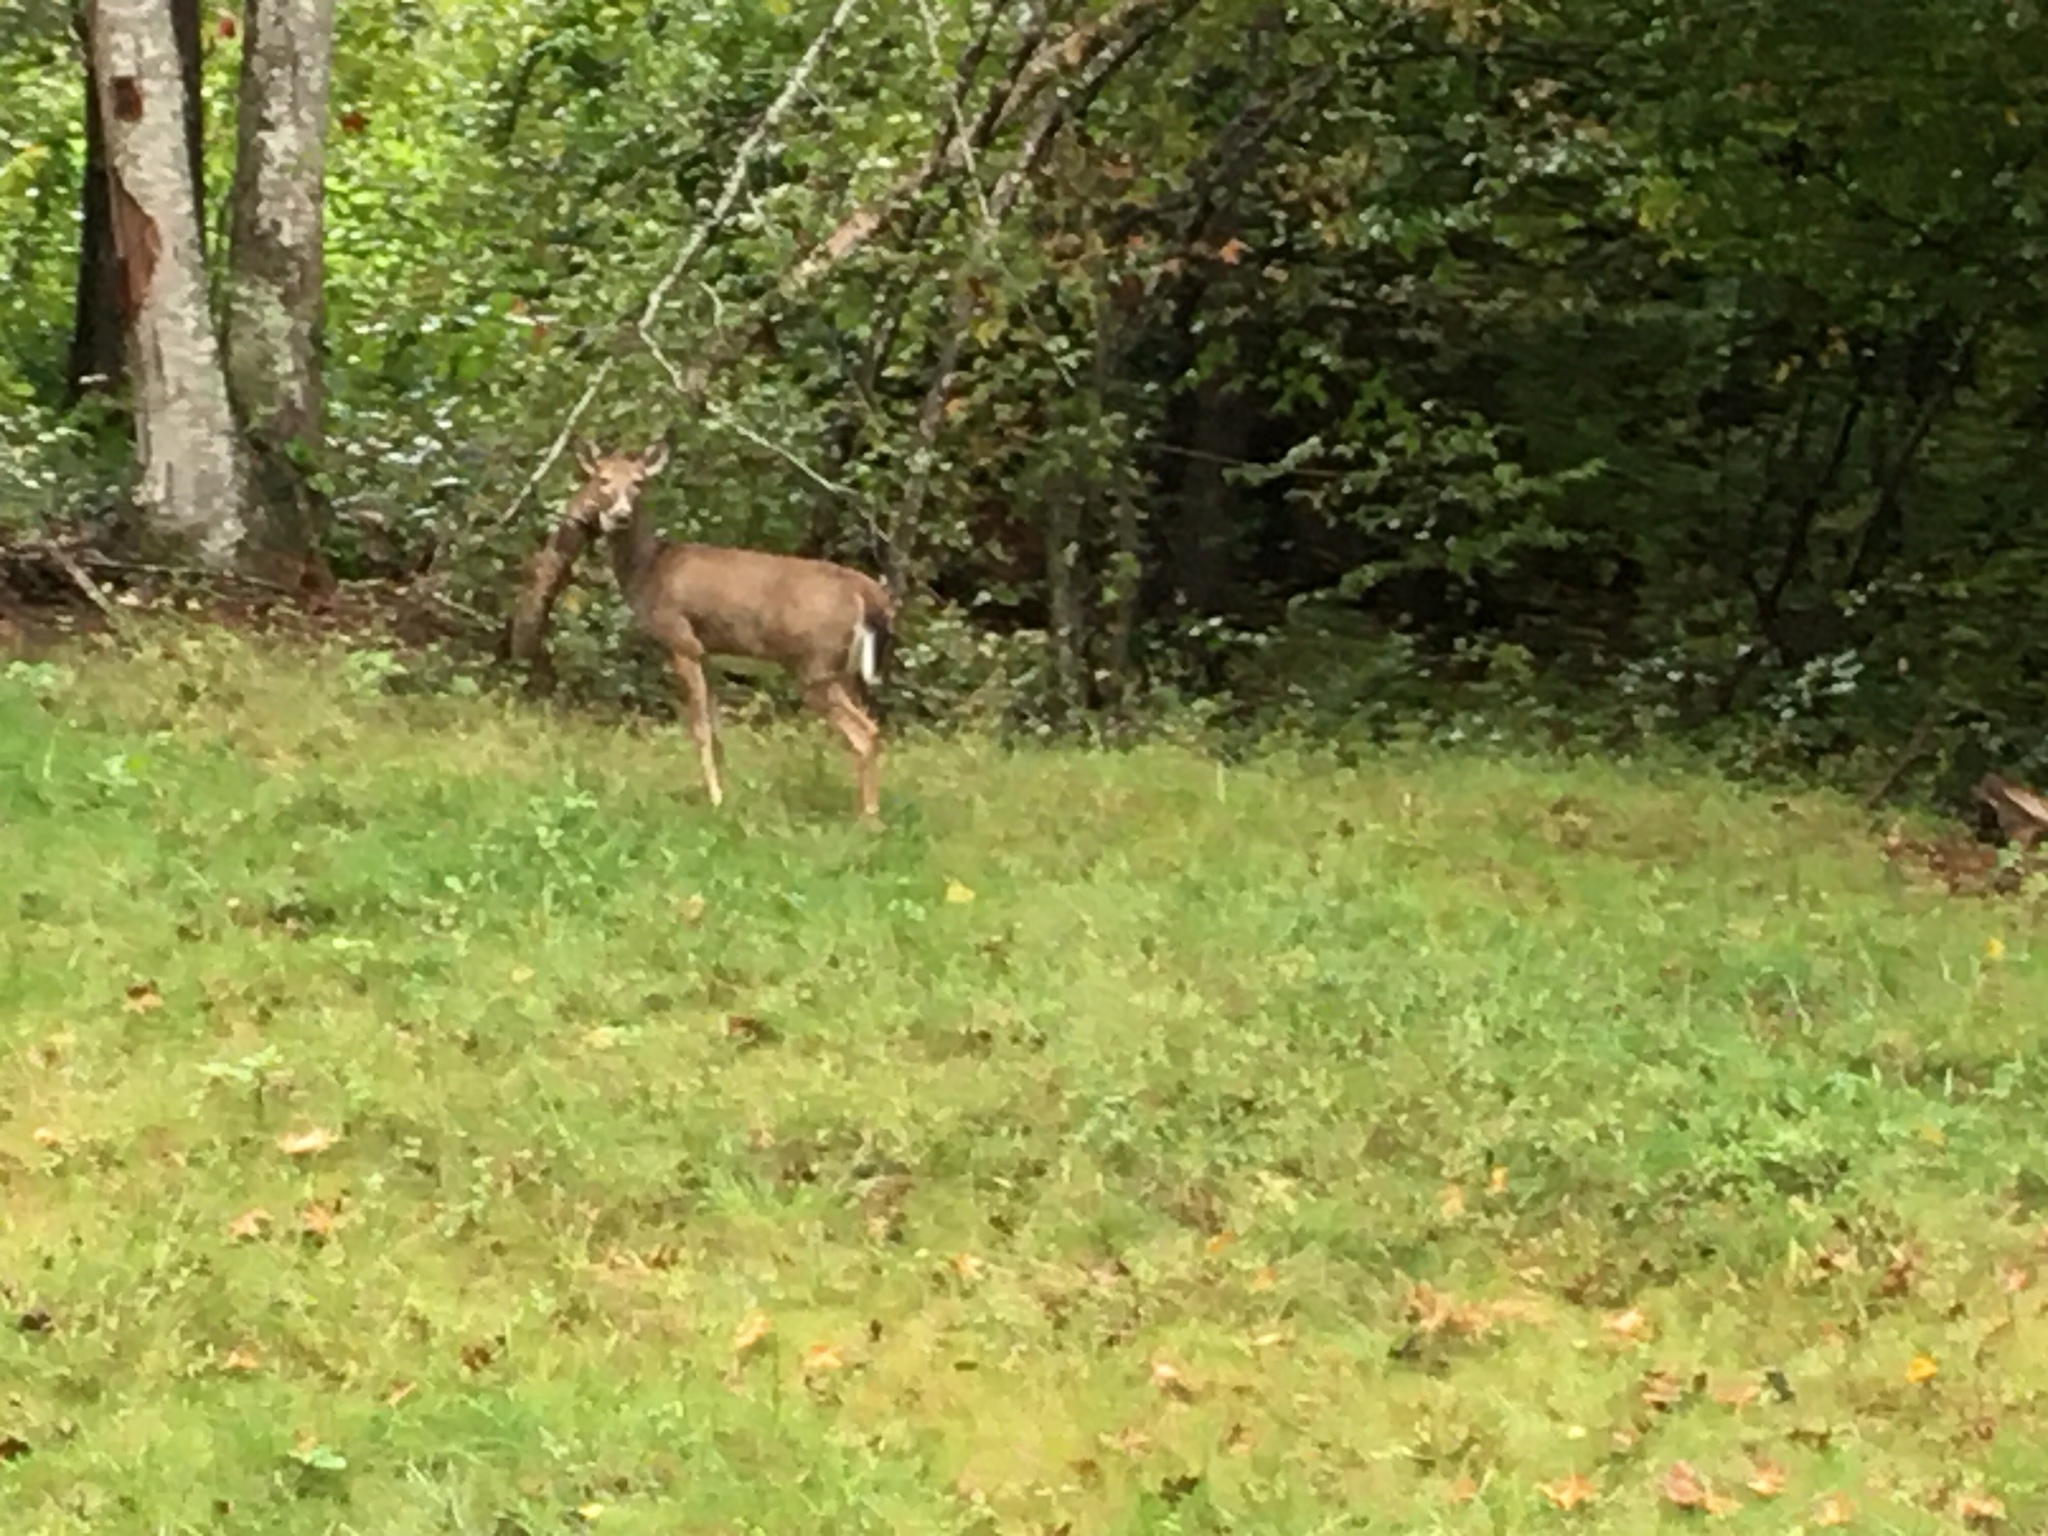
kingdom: Animalia
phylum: Chordata
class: Mammalia
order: Artiodactyla
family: Cervidae
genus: Odocoileus
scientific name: Odocoileus virginianus
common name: White-tailed deer
